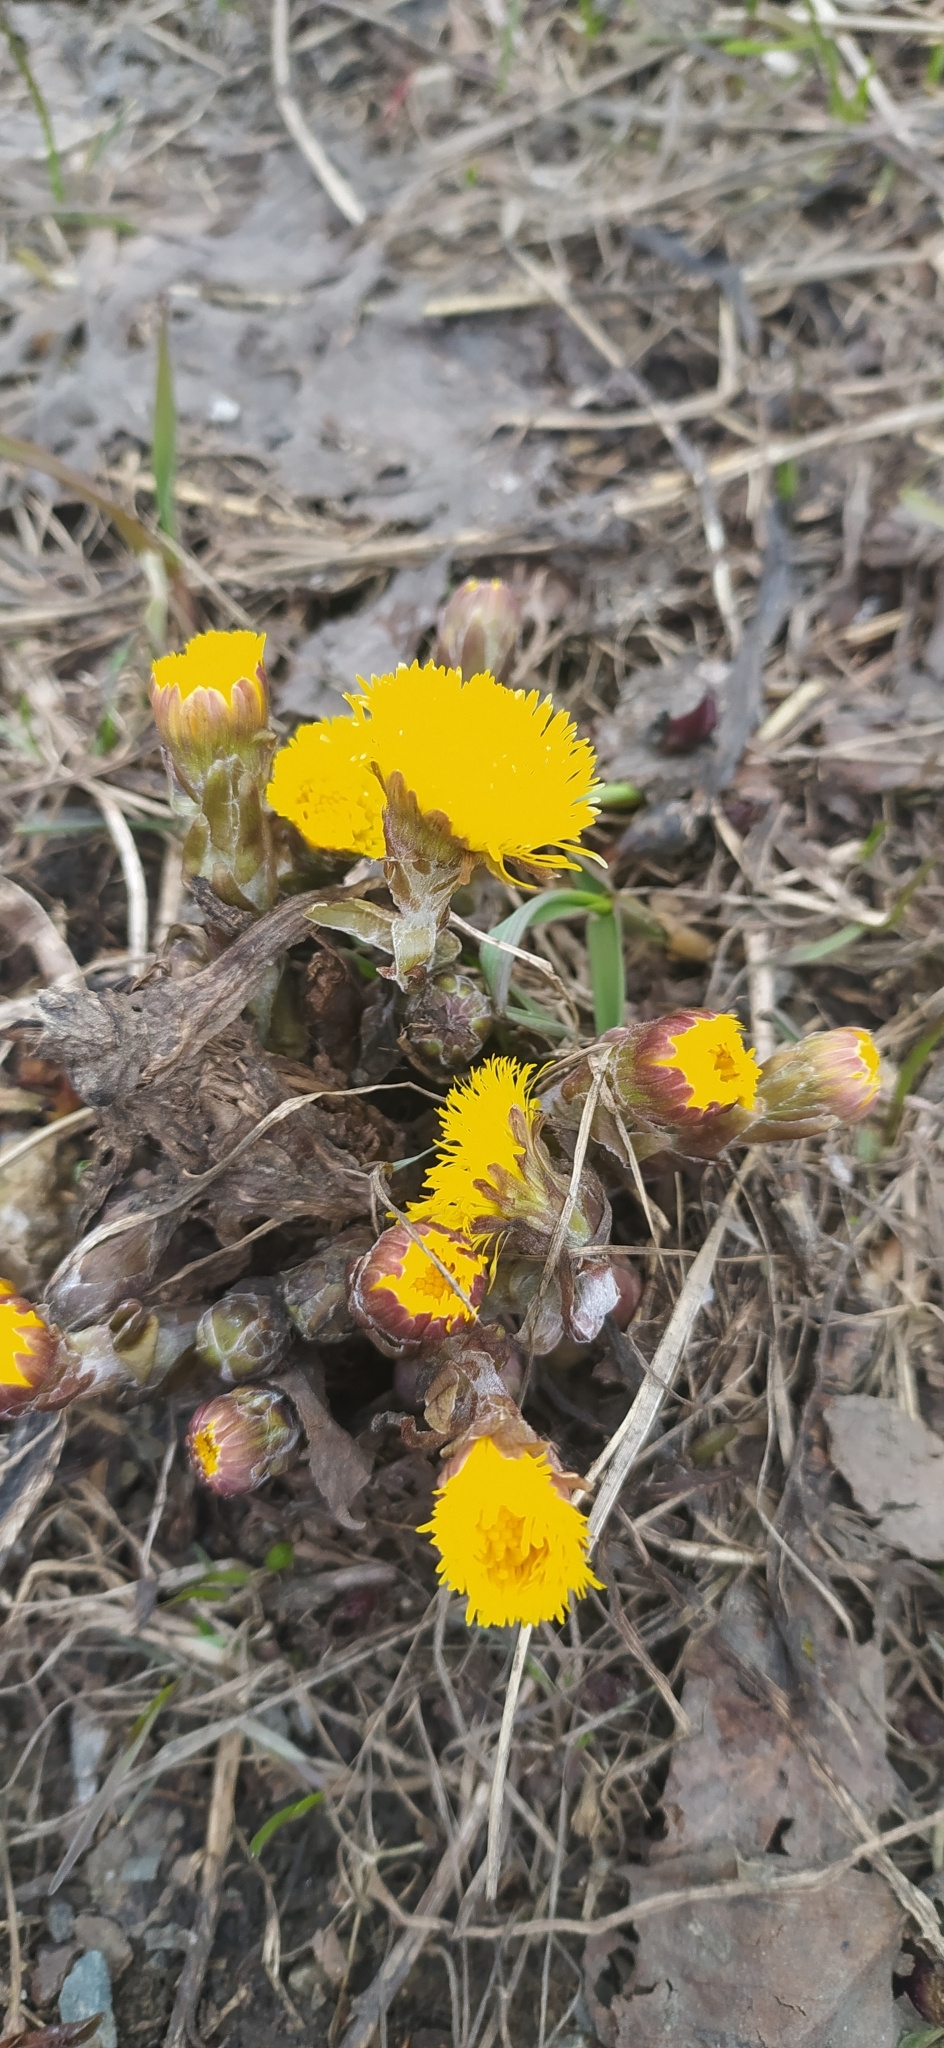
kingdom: Plantae
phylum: Tracheophyta
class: Magnoliopsida
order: Asterales
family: Asteraceae
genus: Tussilago
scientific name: Tussilago farfara
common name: Coltsfoot
